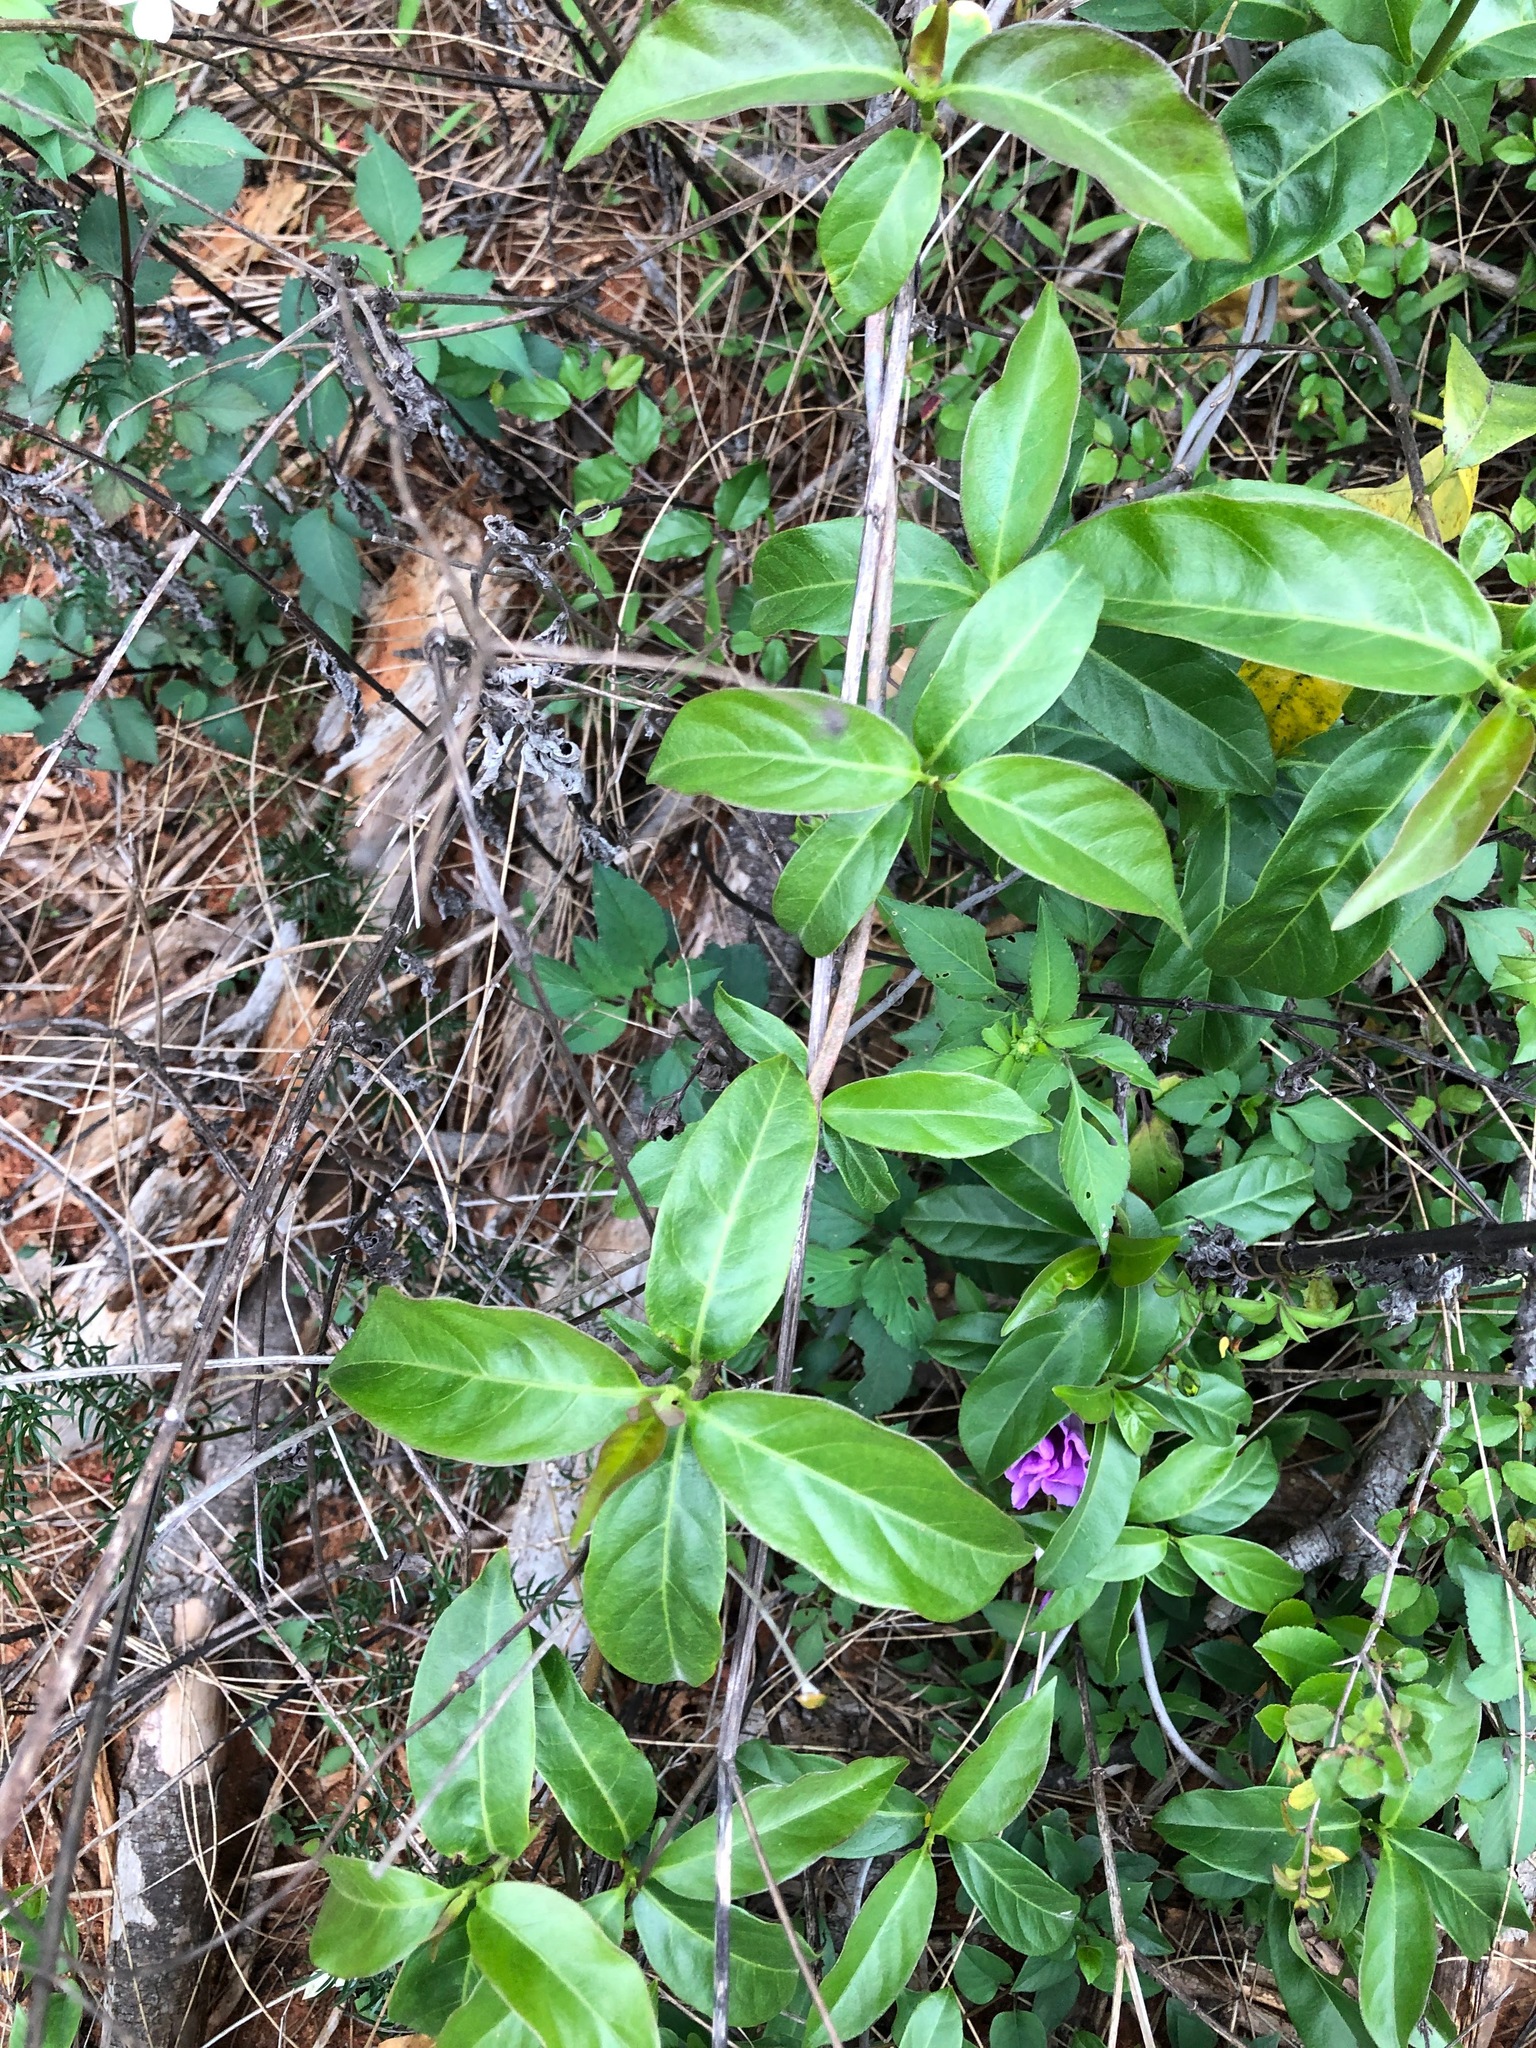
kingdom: Plantae
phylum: Tracheophyta
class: Magnoliopsida
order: Gentianales
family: Rubiaceae
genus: Gynochthodes
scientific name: Gynochthodes umbellata
